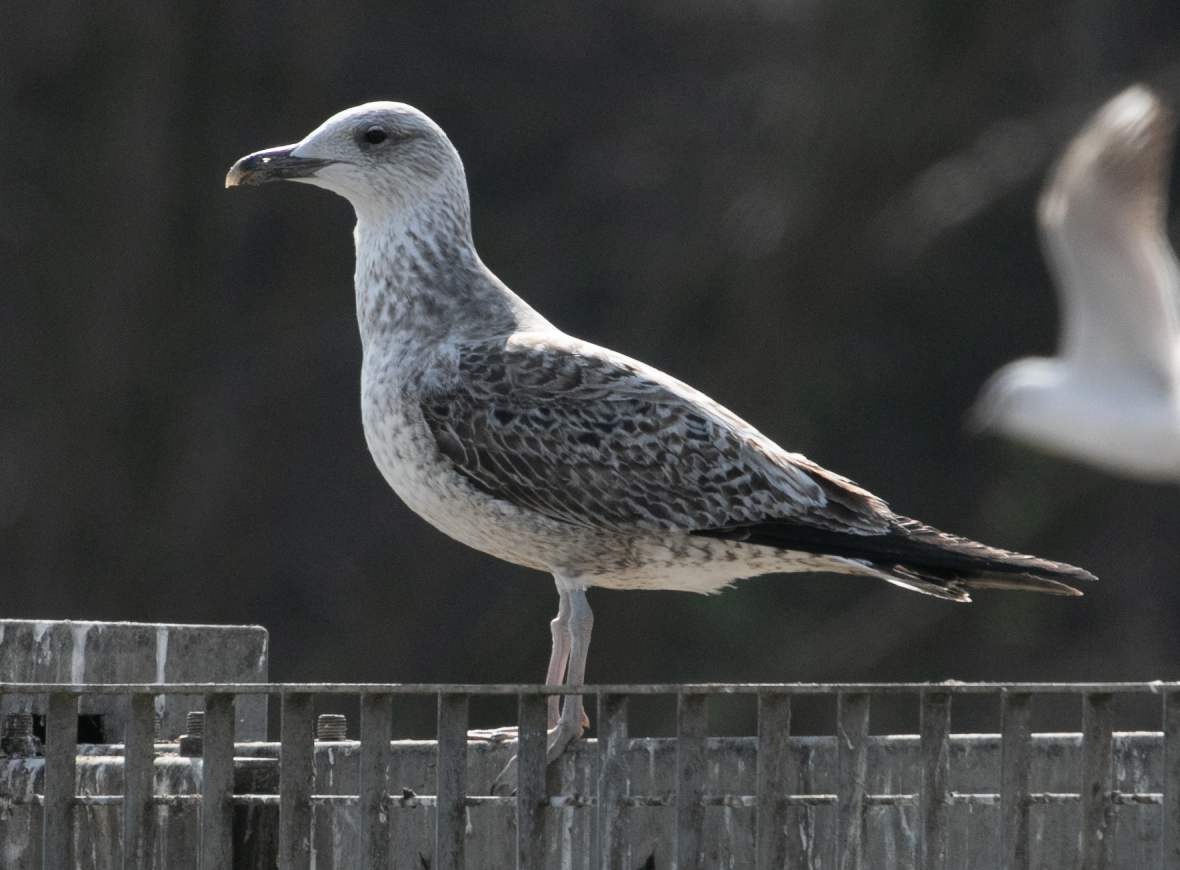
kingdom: Animalia
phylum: Chordata
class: Aves
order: Charadriiformes
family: Laridae
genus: Larus
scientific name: Larus michahellis
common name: Yellow-legged gull
